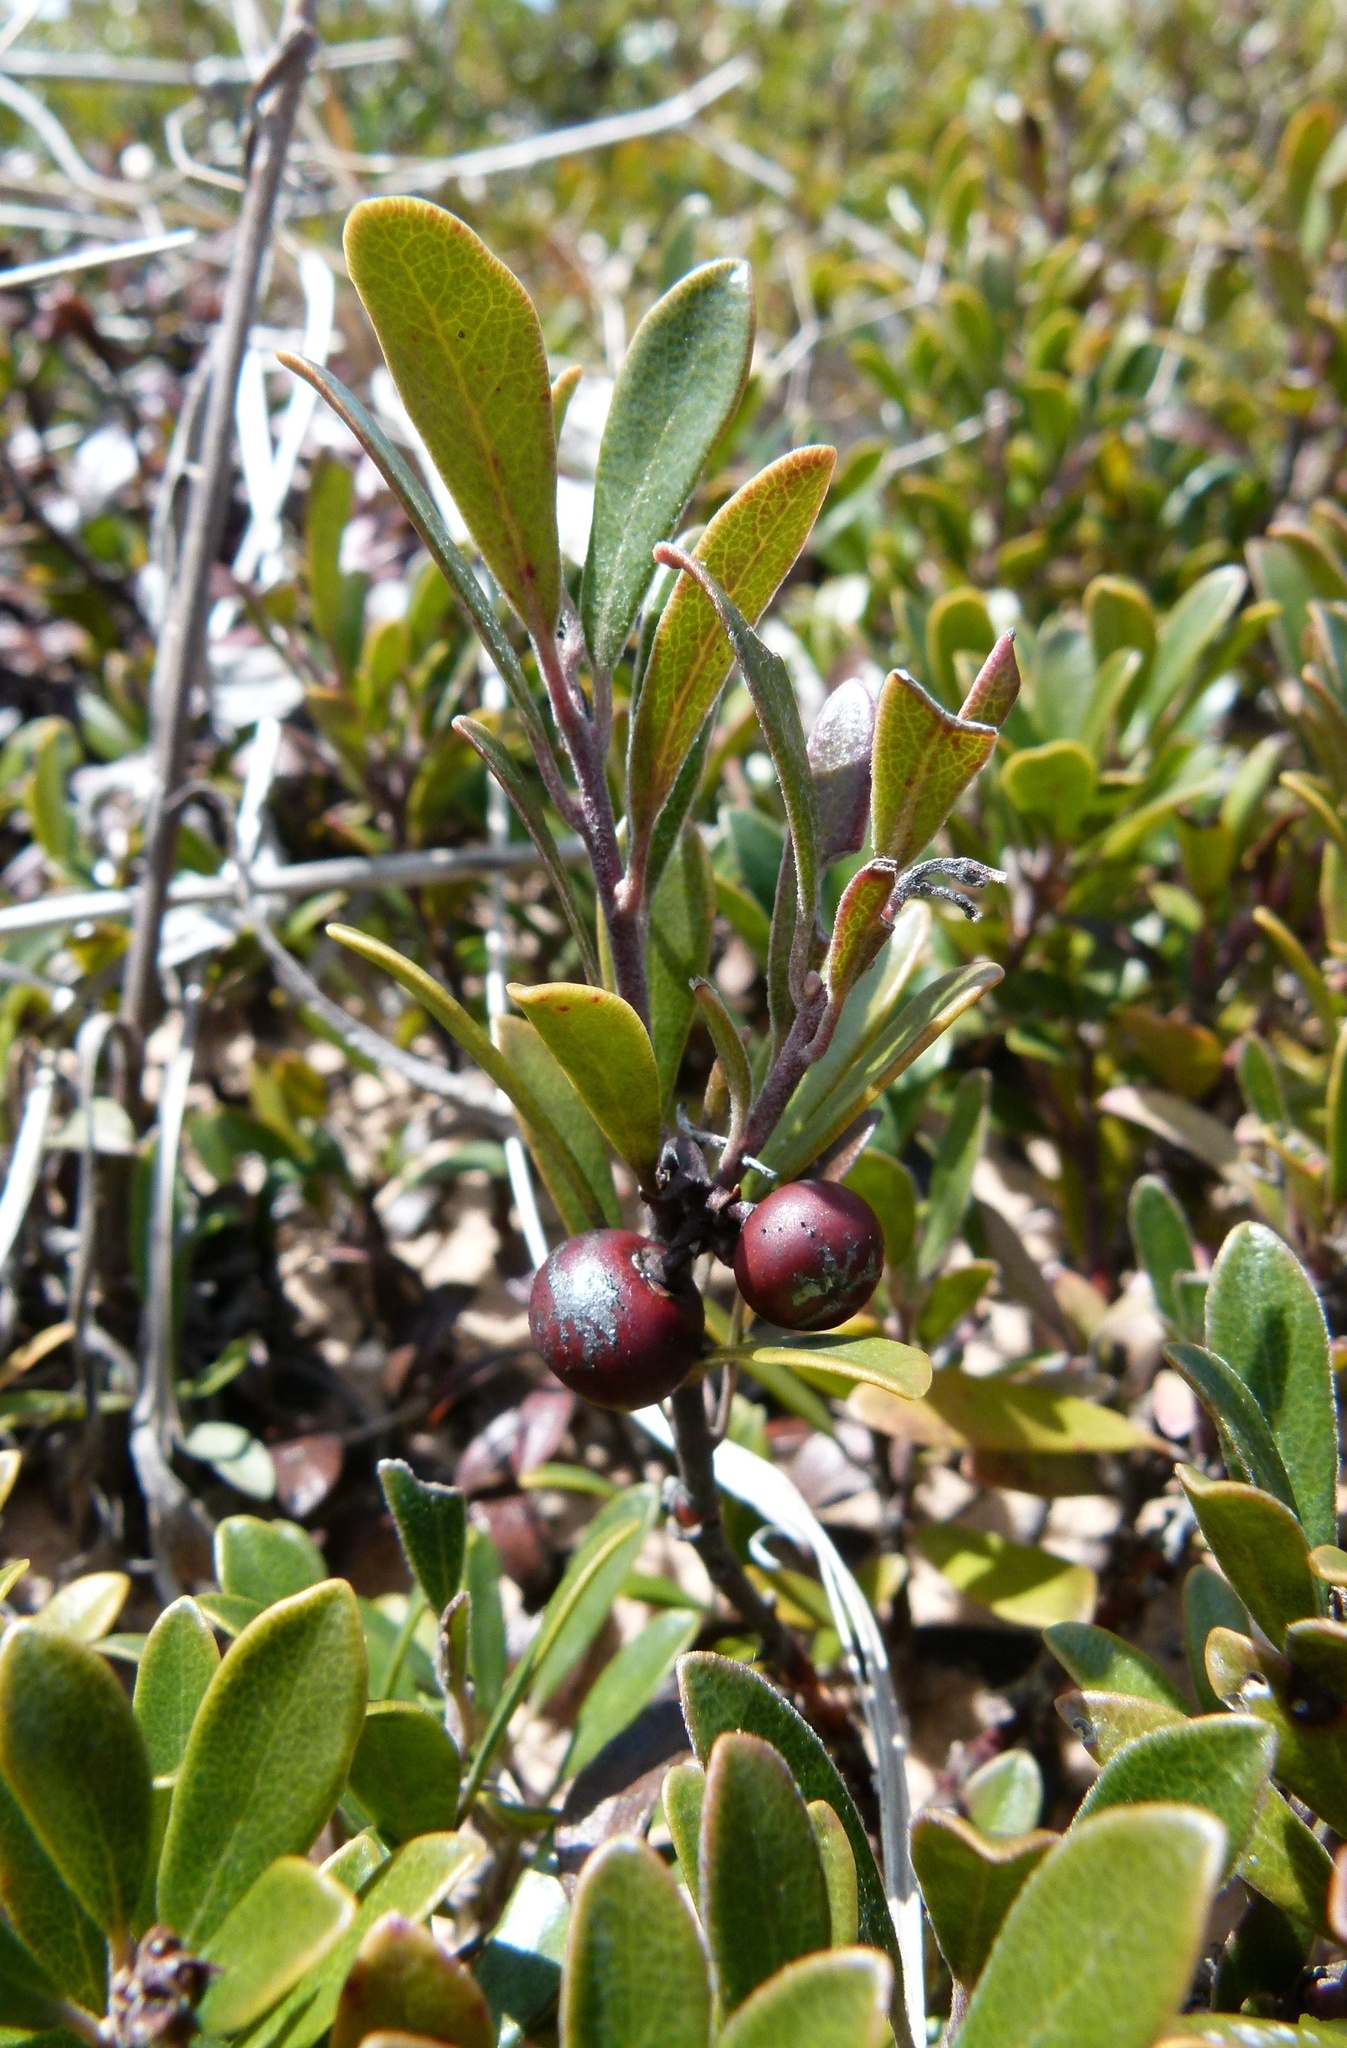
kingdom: Plantae
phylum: Tracheophyta
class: Magnoliopsida
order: Ericales
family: Ericaceae
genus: Arctostaphylos
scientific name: Arctostaphylos uva-ursi
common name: Bearberry
